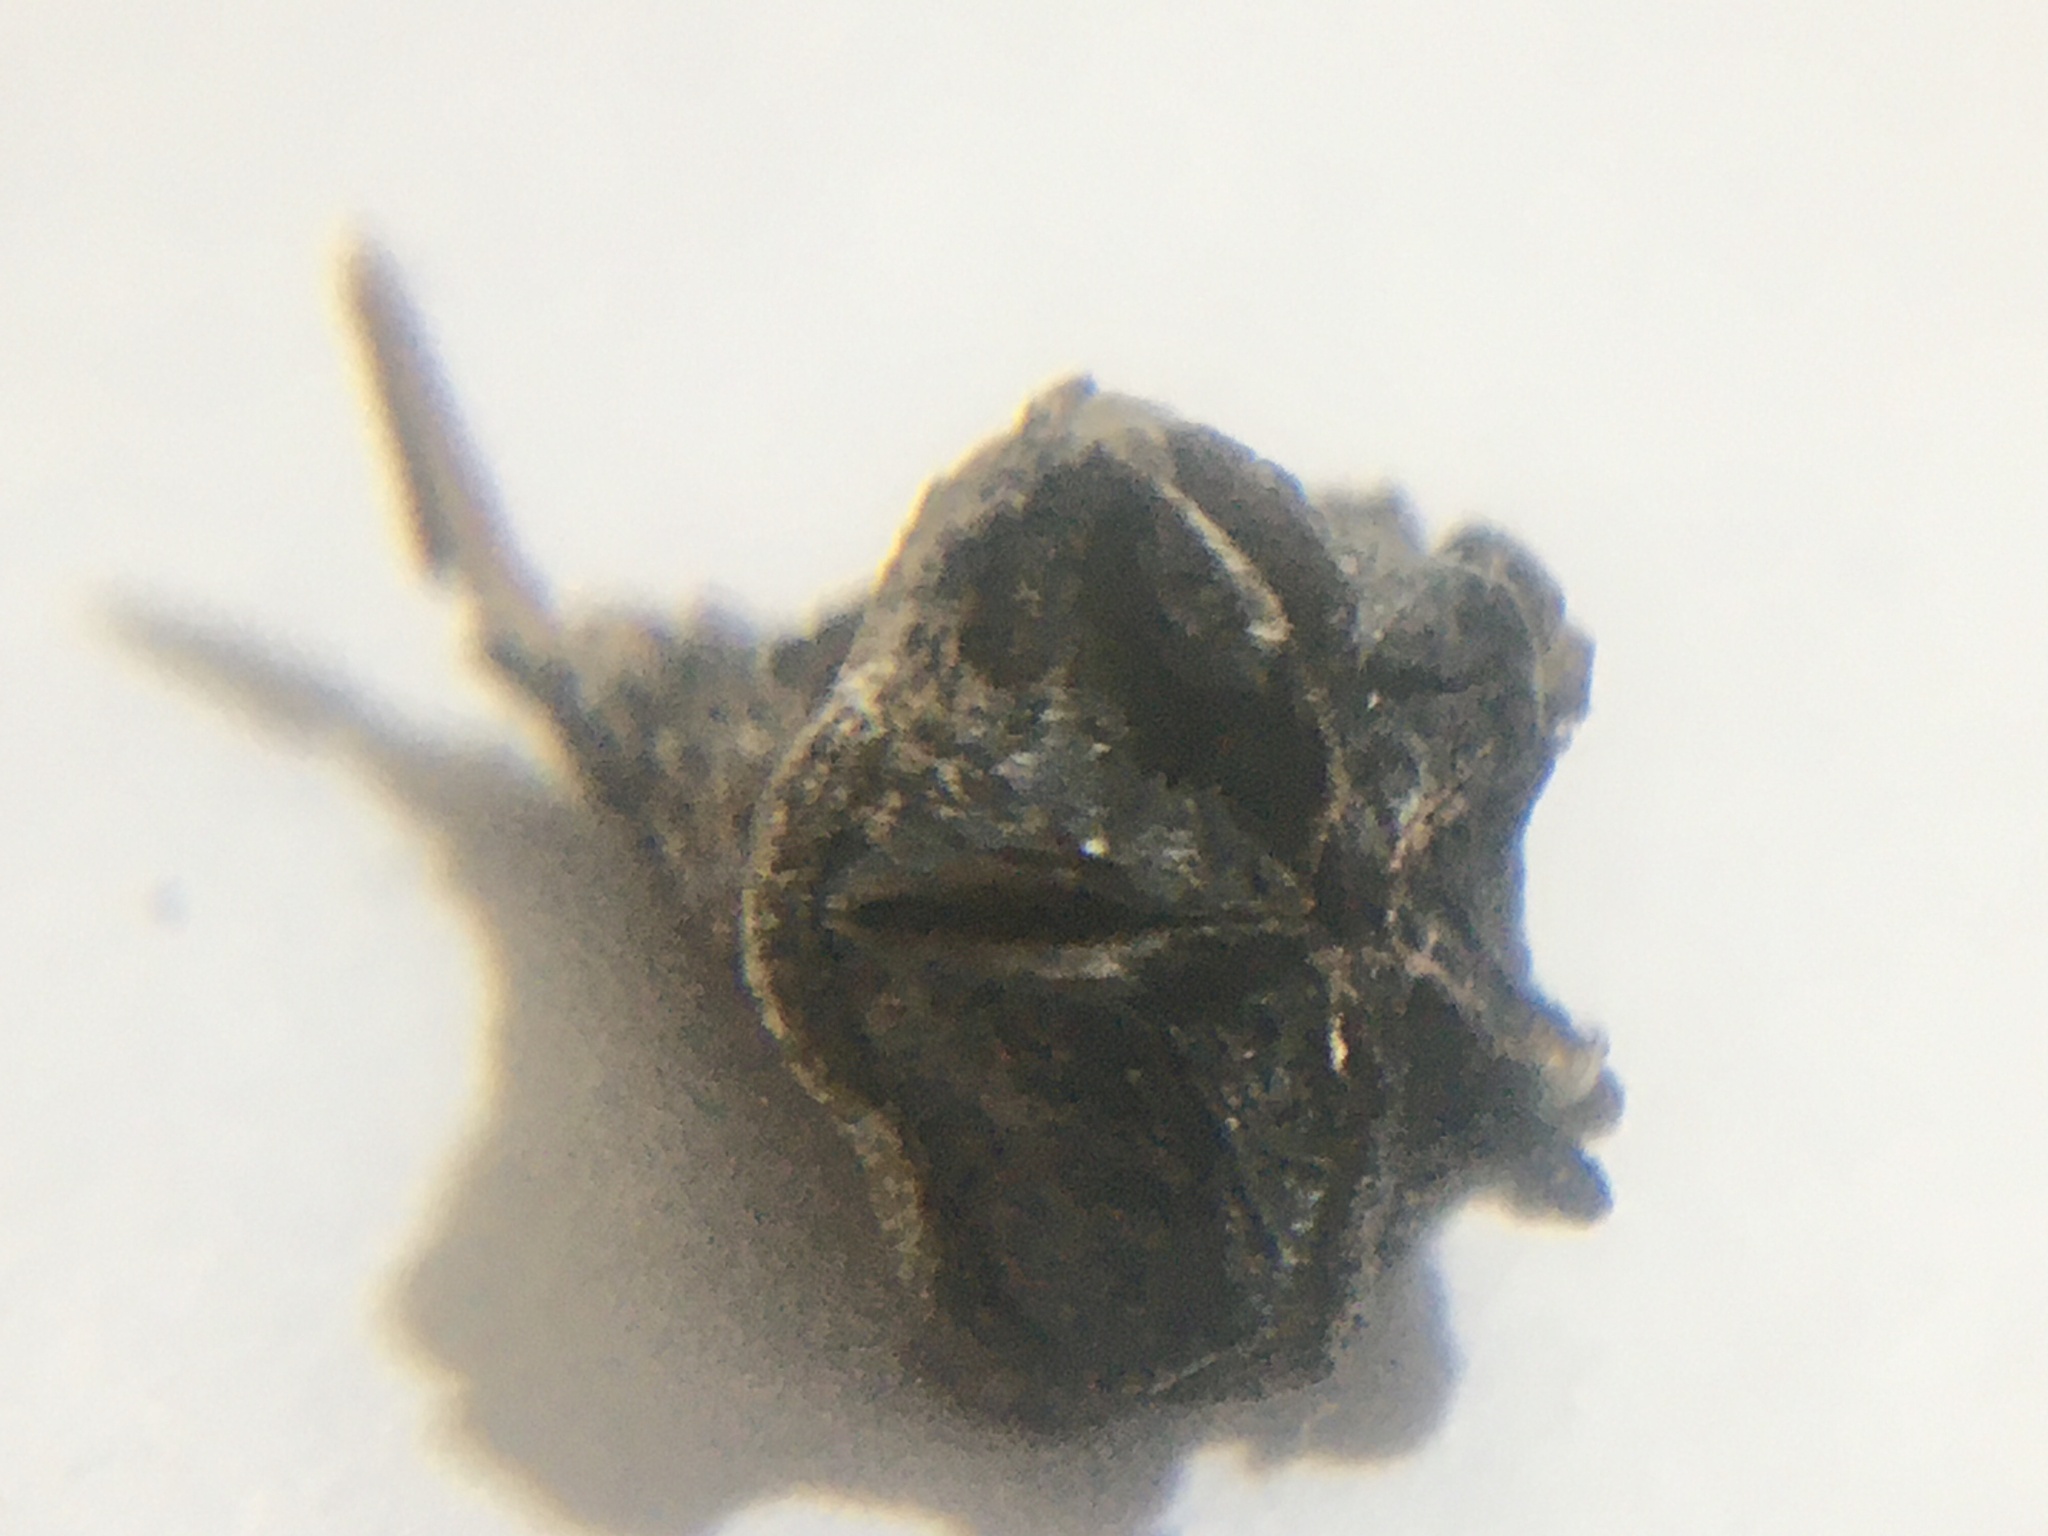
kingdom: Plantae
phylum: Tracheophyta
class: Magnoliopsida
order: Caryophyllales
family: Aizoaceae
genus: Lampranthus
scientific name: Lampranthus emarginatus
